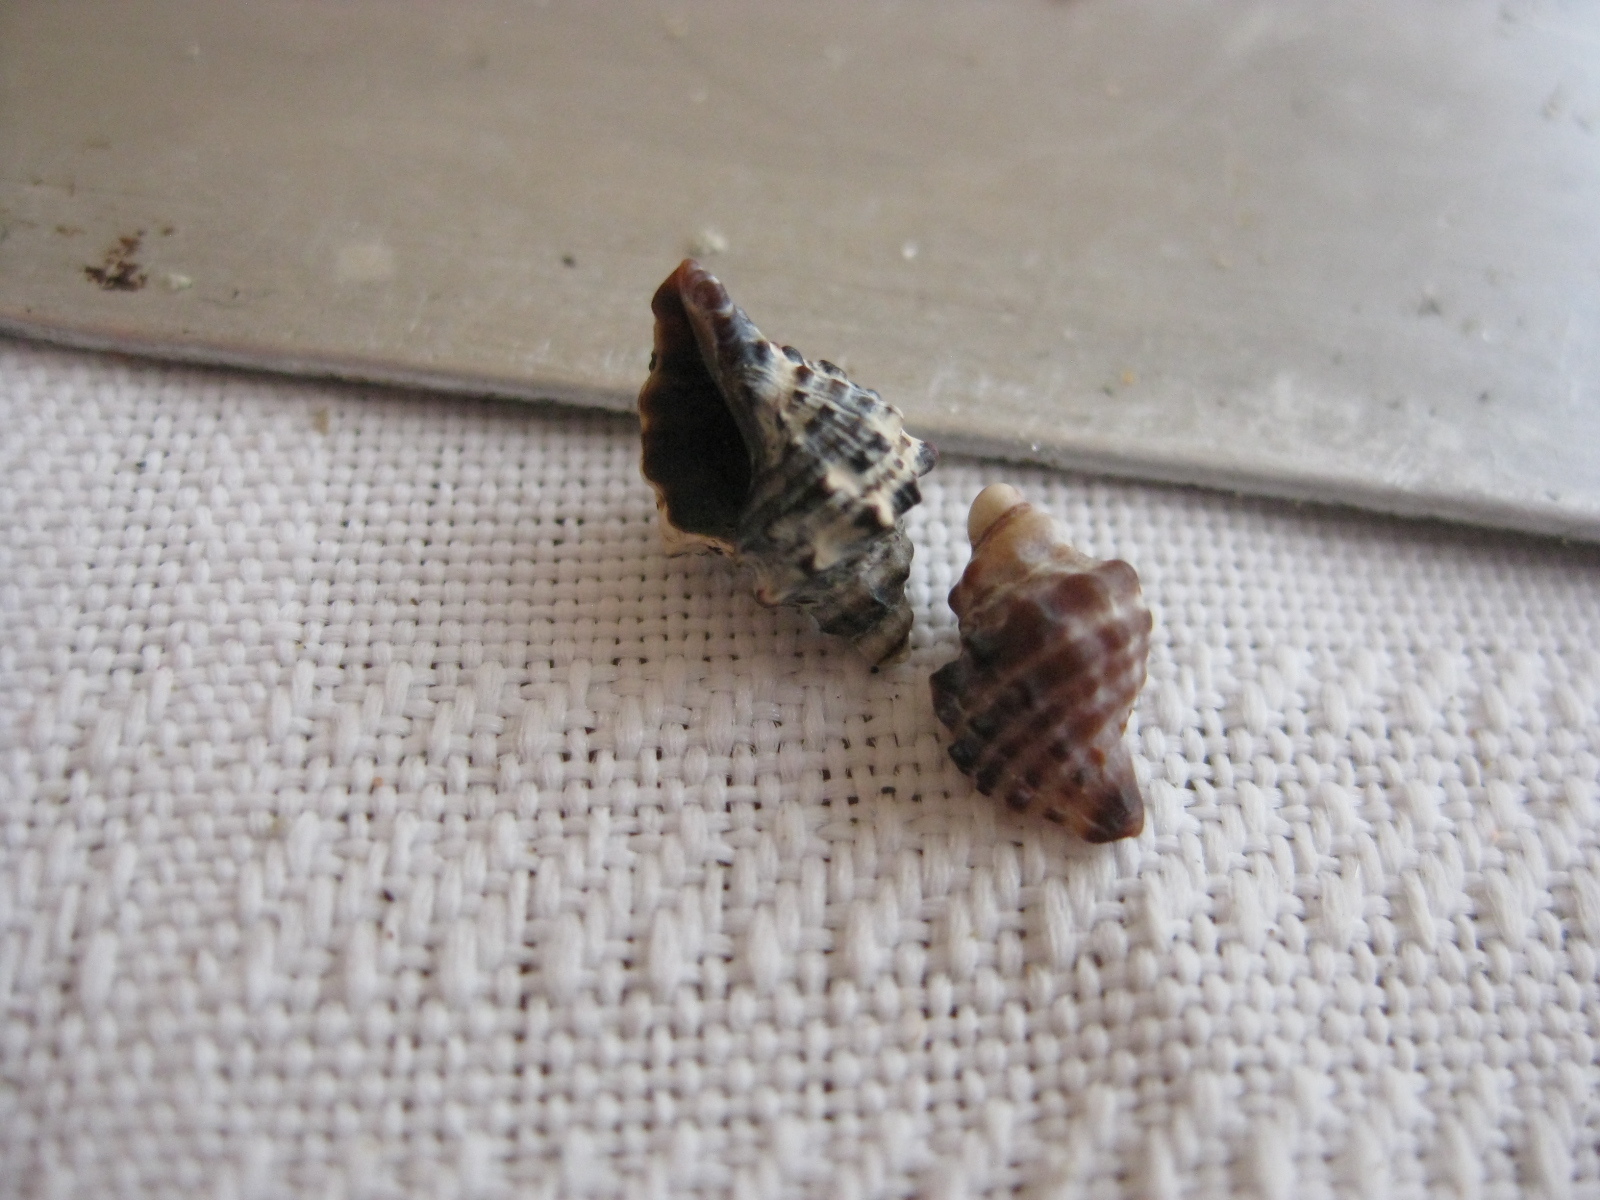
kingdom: Animalia
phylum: Mollusca
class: Gastropoda
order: Neogastropoda
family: Muricidae
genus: Haustrum
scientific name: Haustrum scobina
